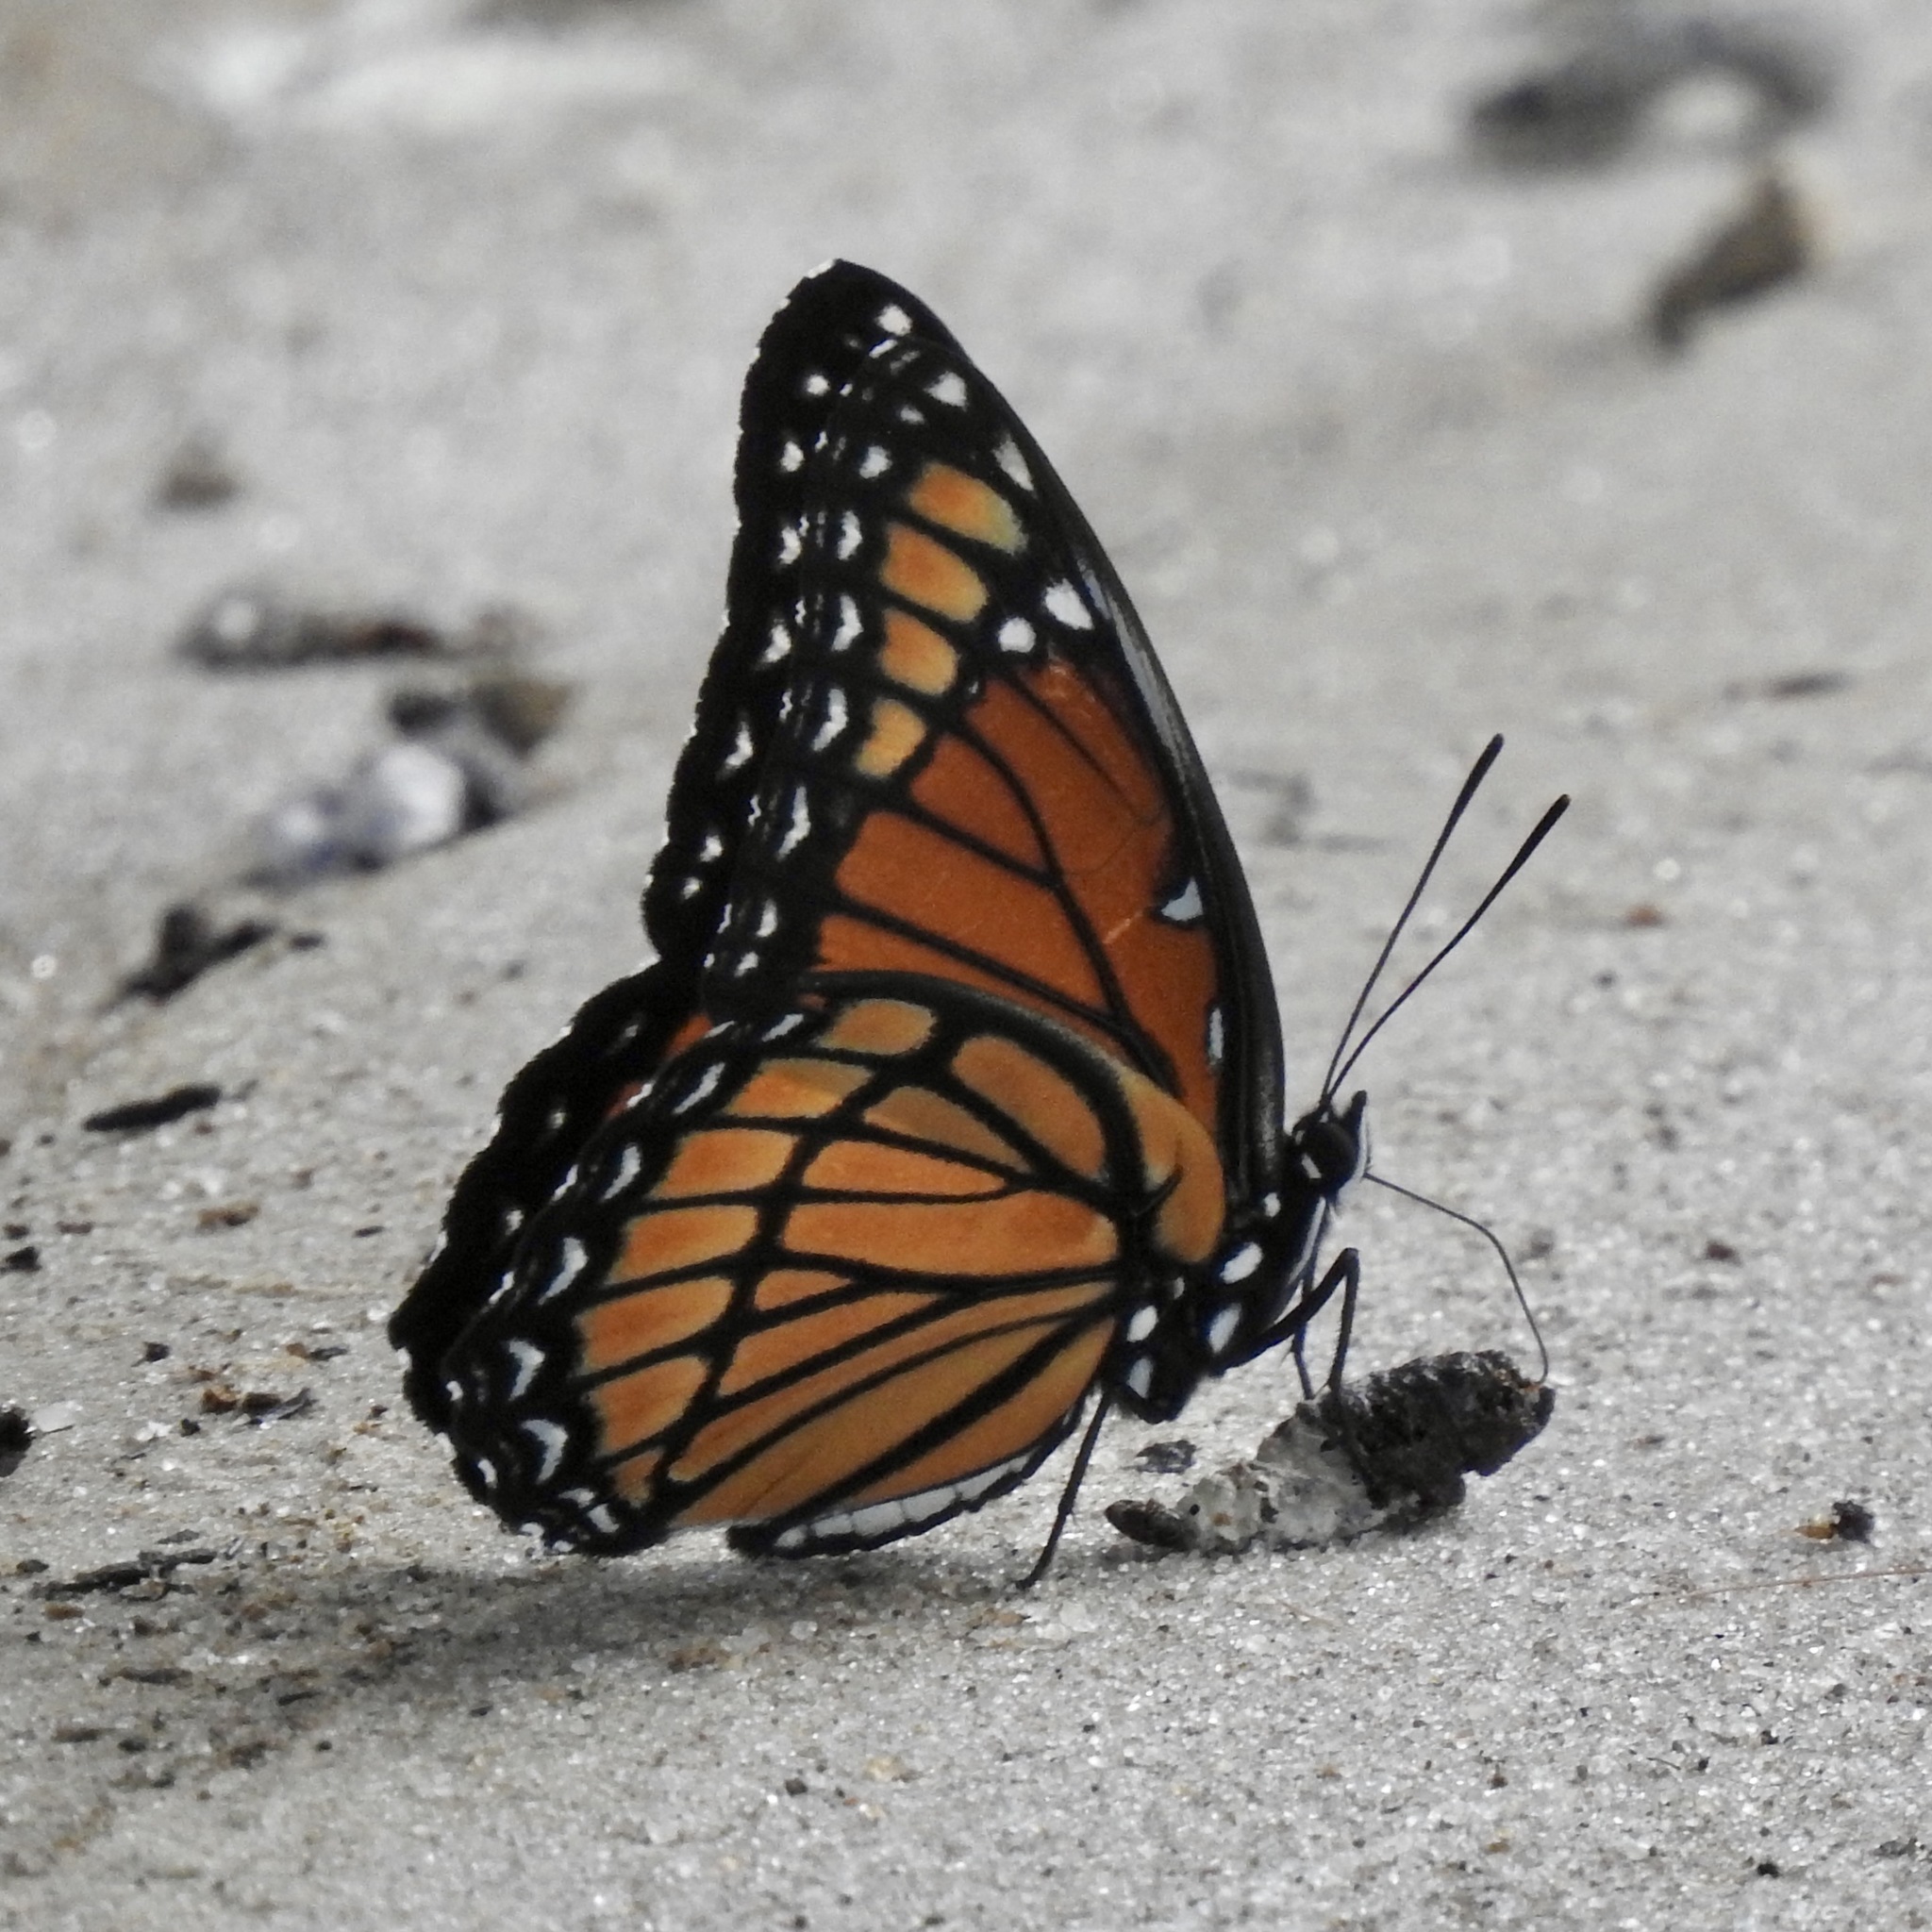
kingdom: Animalia
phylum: Arthropoda
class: Insecta
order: Lepidoptera
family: Nymphalidae
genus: Limenitis
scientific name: Limenitis archippus
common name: Viceroy
